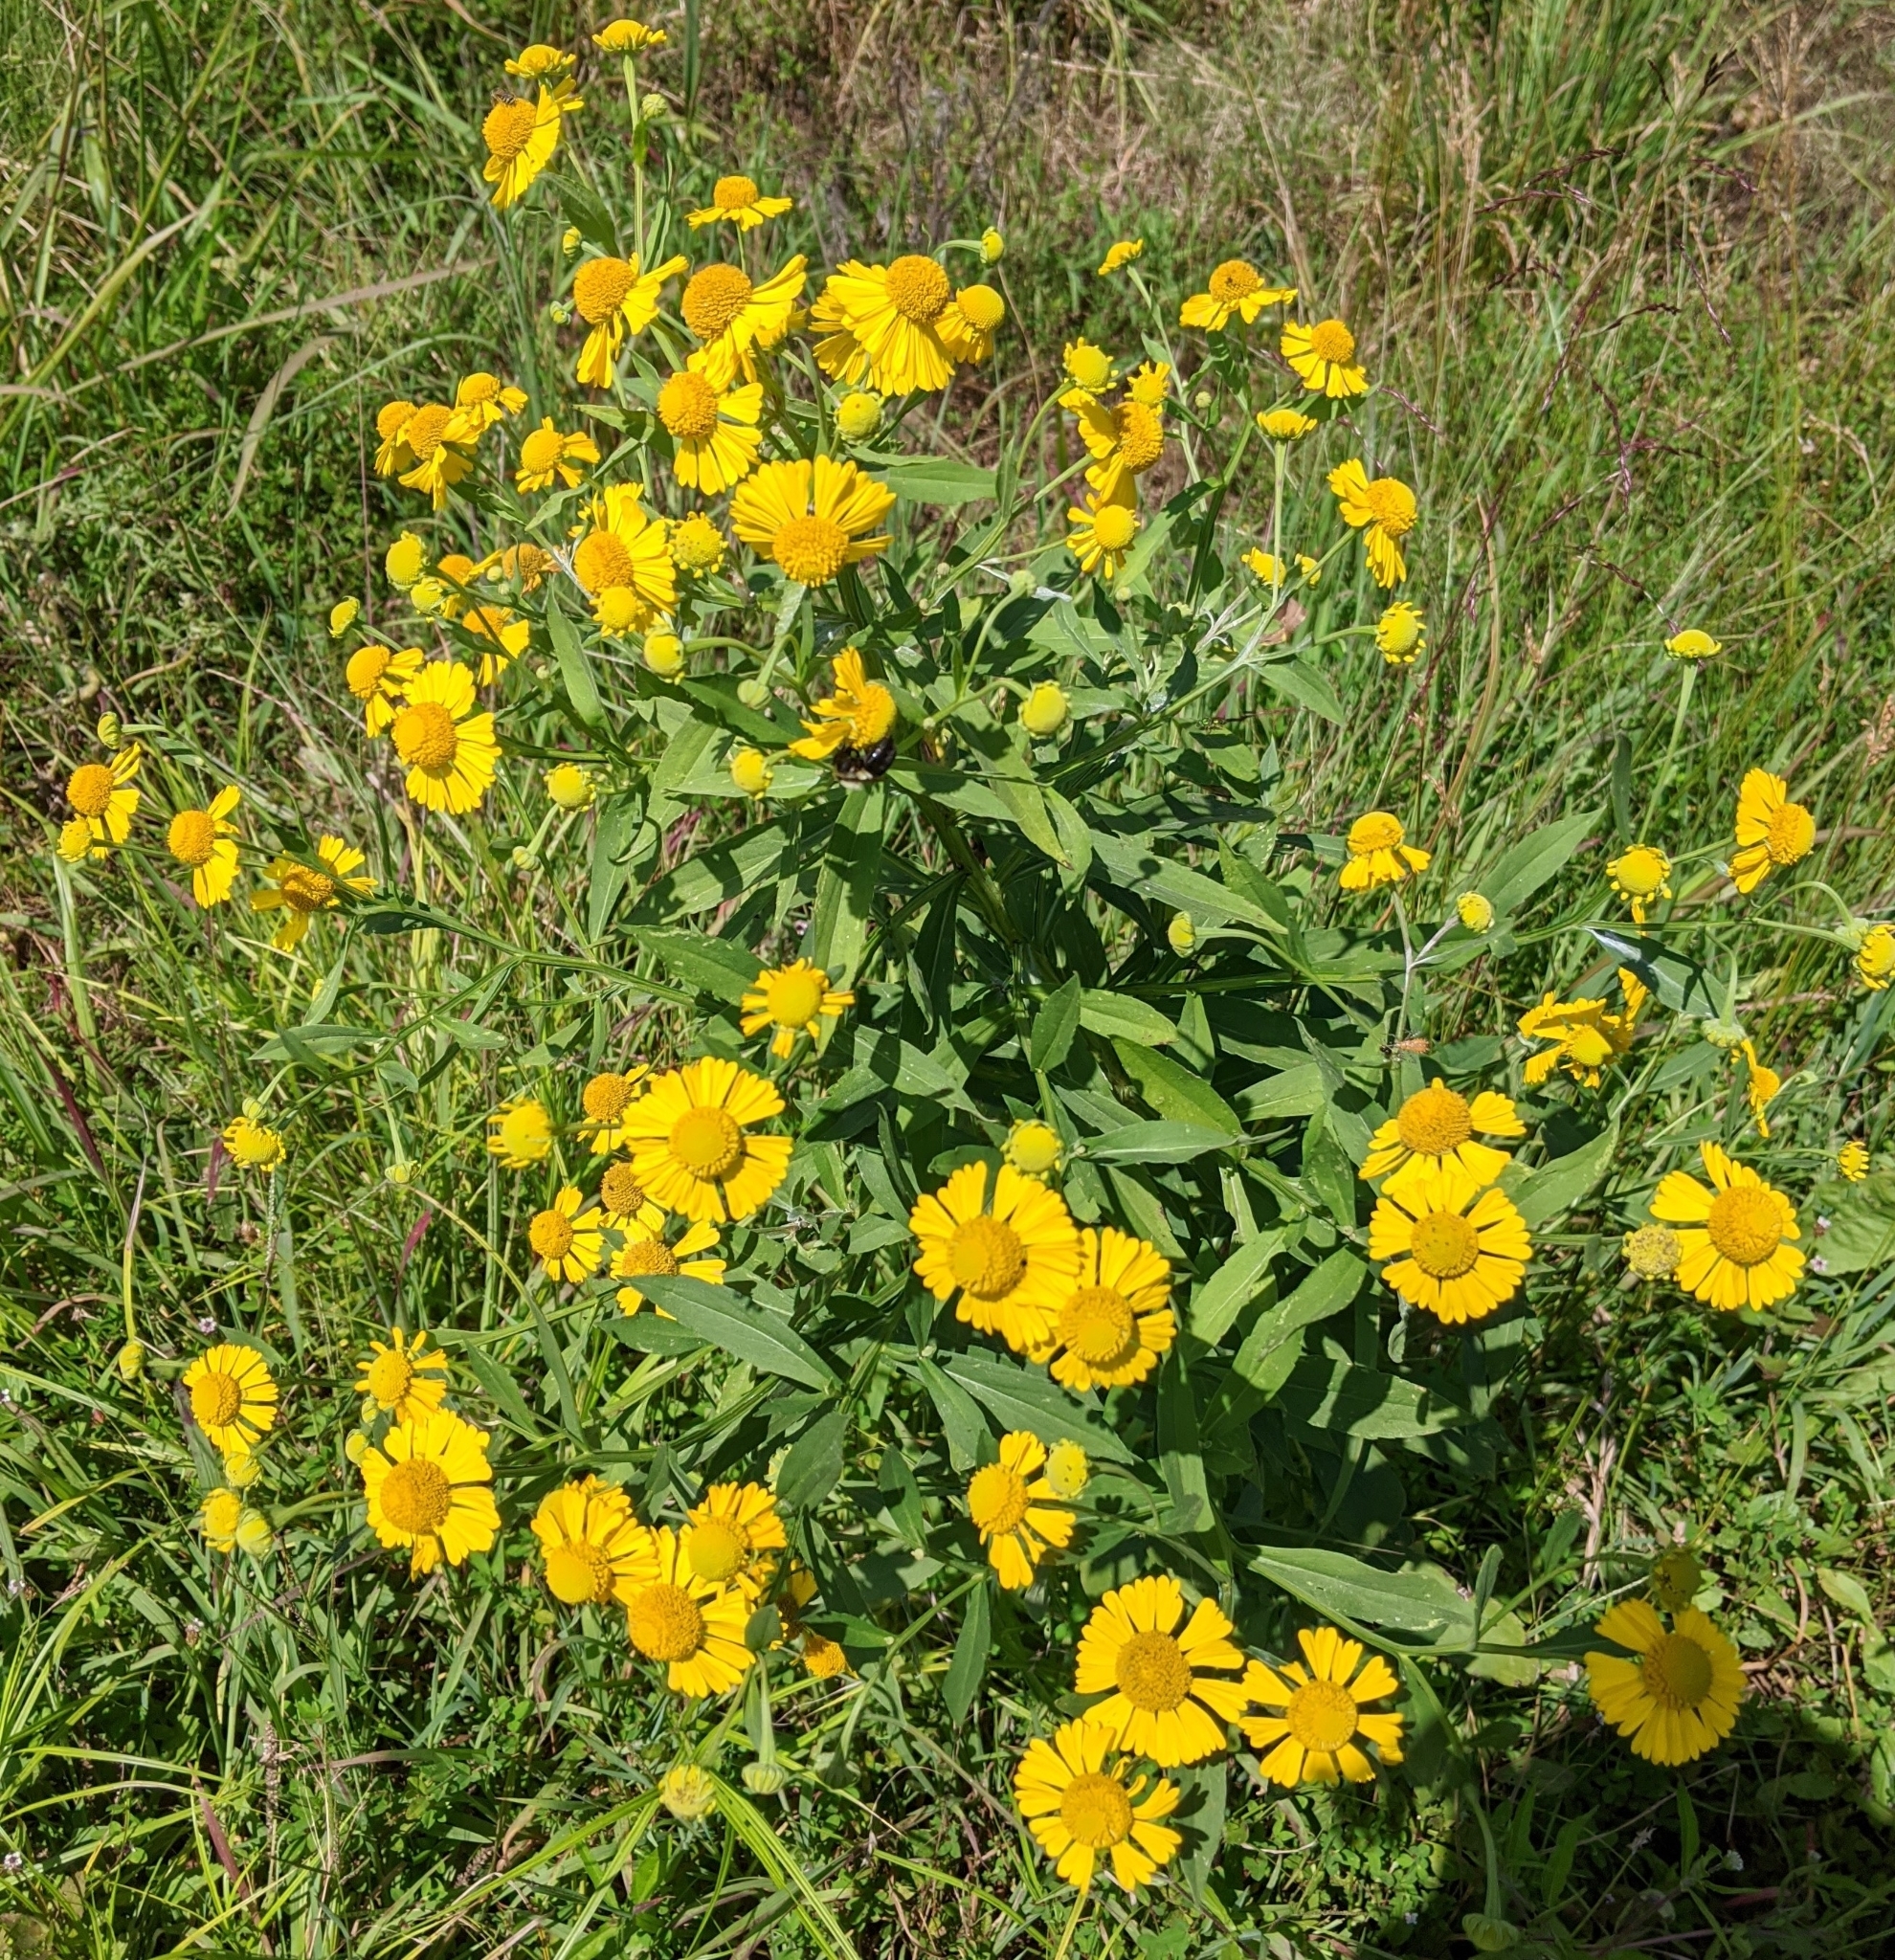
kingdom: Plantae
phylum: Tracheophyta
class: Magnoliopsida
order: Asterales
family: Asteraceae
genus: Helenium
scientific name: Helenium autumnale
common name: Sneezeweed
